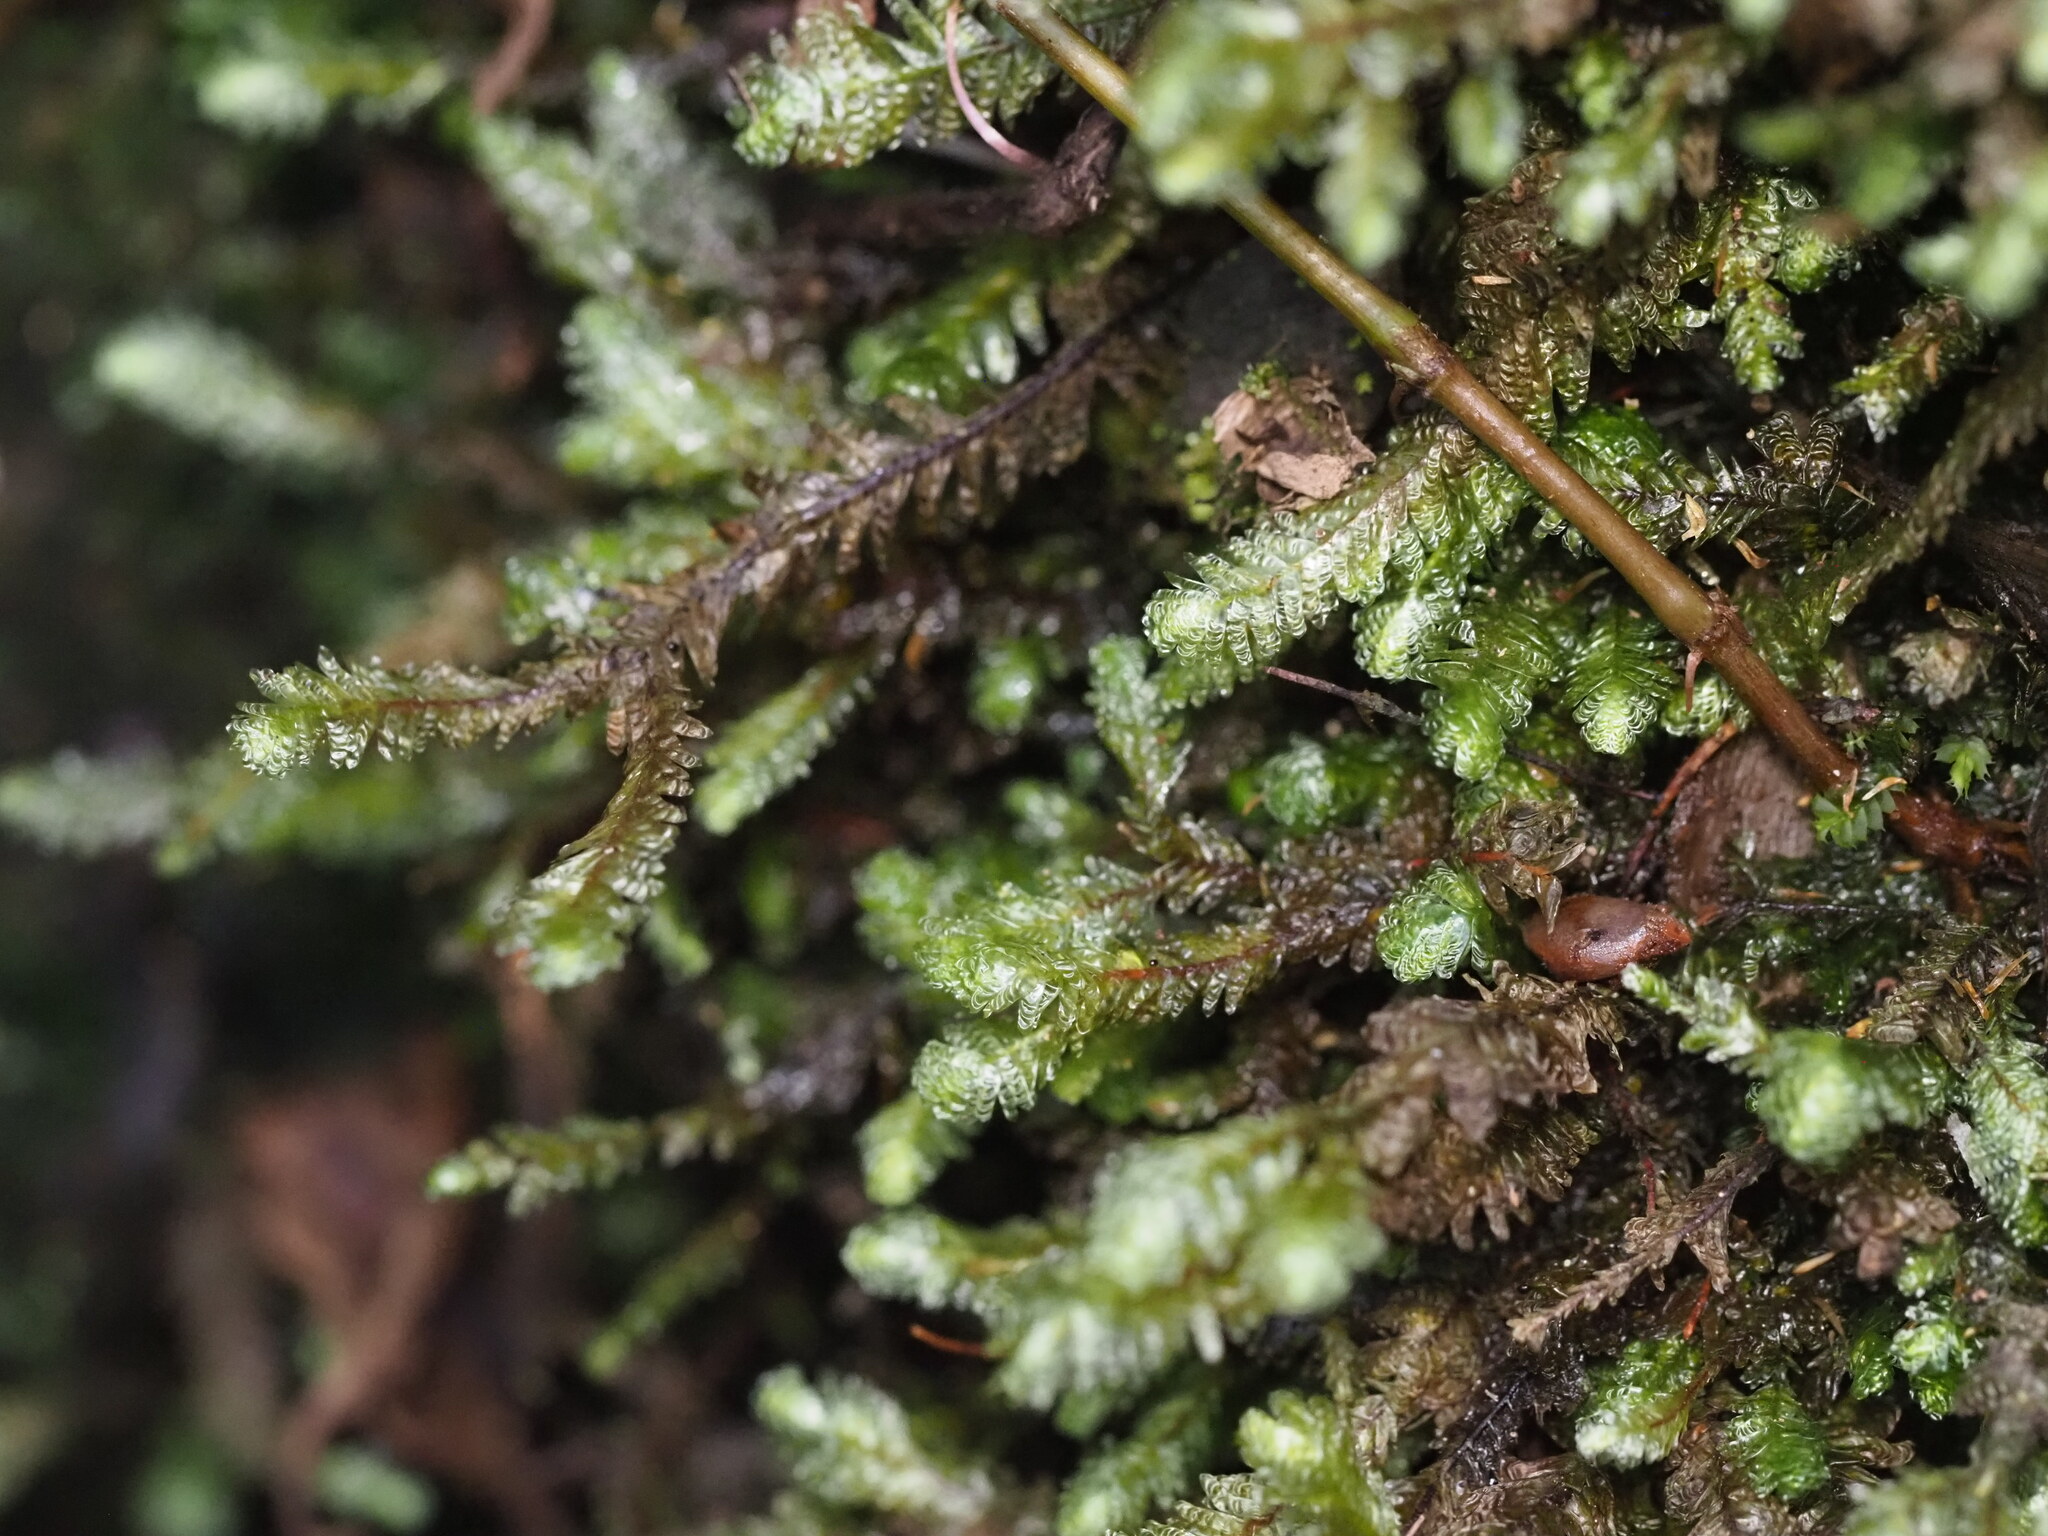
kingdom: Plantae
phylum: Bryophyta
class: Bryopsida
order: Hypnales
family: Neckeraceae
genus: Baldwiniella
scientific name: Baldwiniella kealeensis
